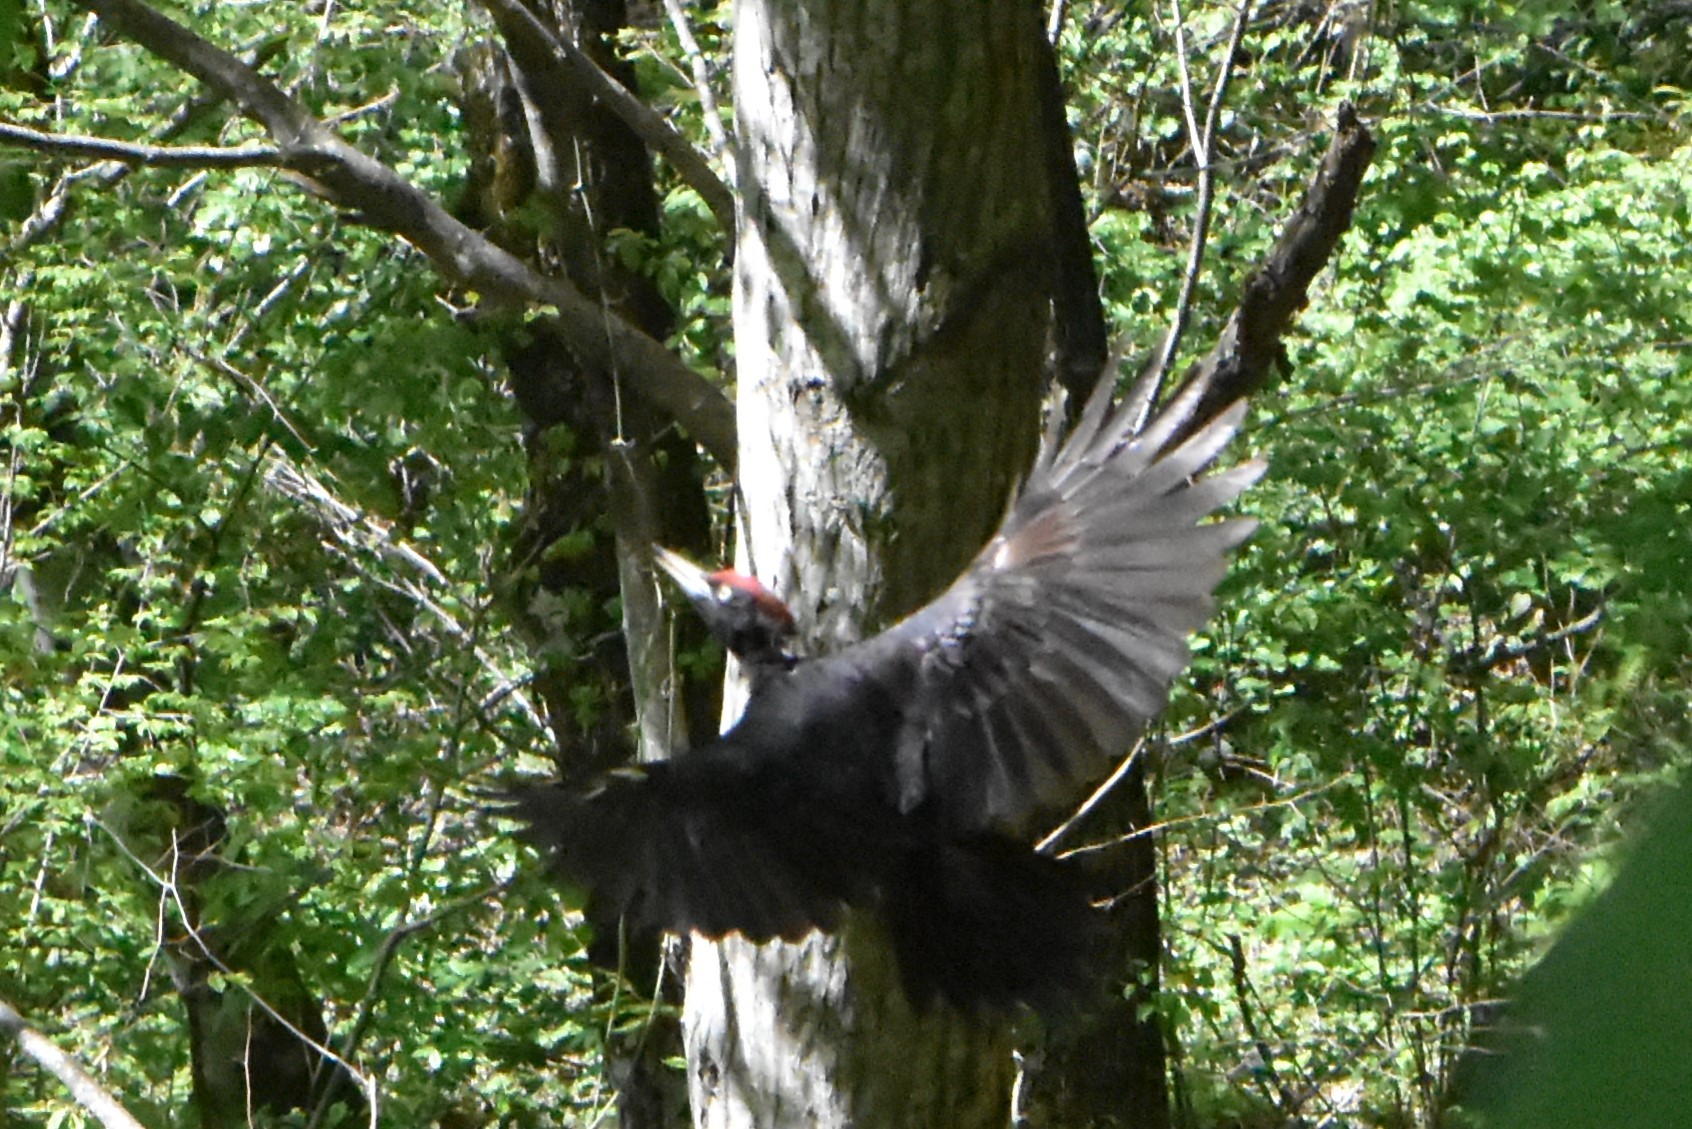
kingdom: Animalia
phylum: Chordata
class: Aves
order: Piciformes
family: Picidae
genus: Dryocopus
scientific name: Dryocopus martius
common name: Black woodpecker
